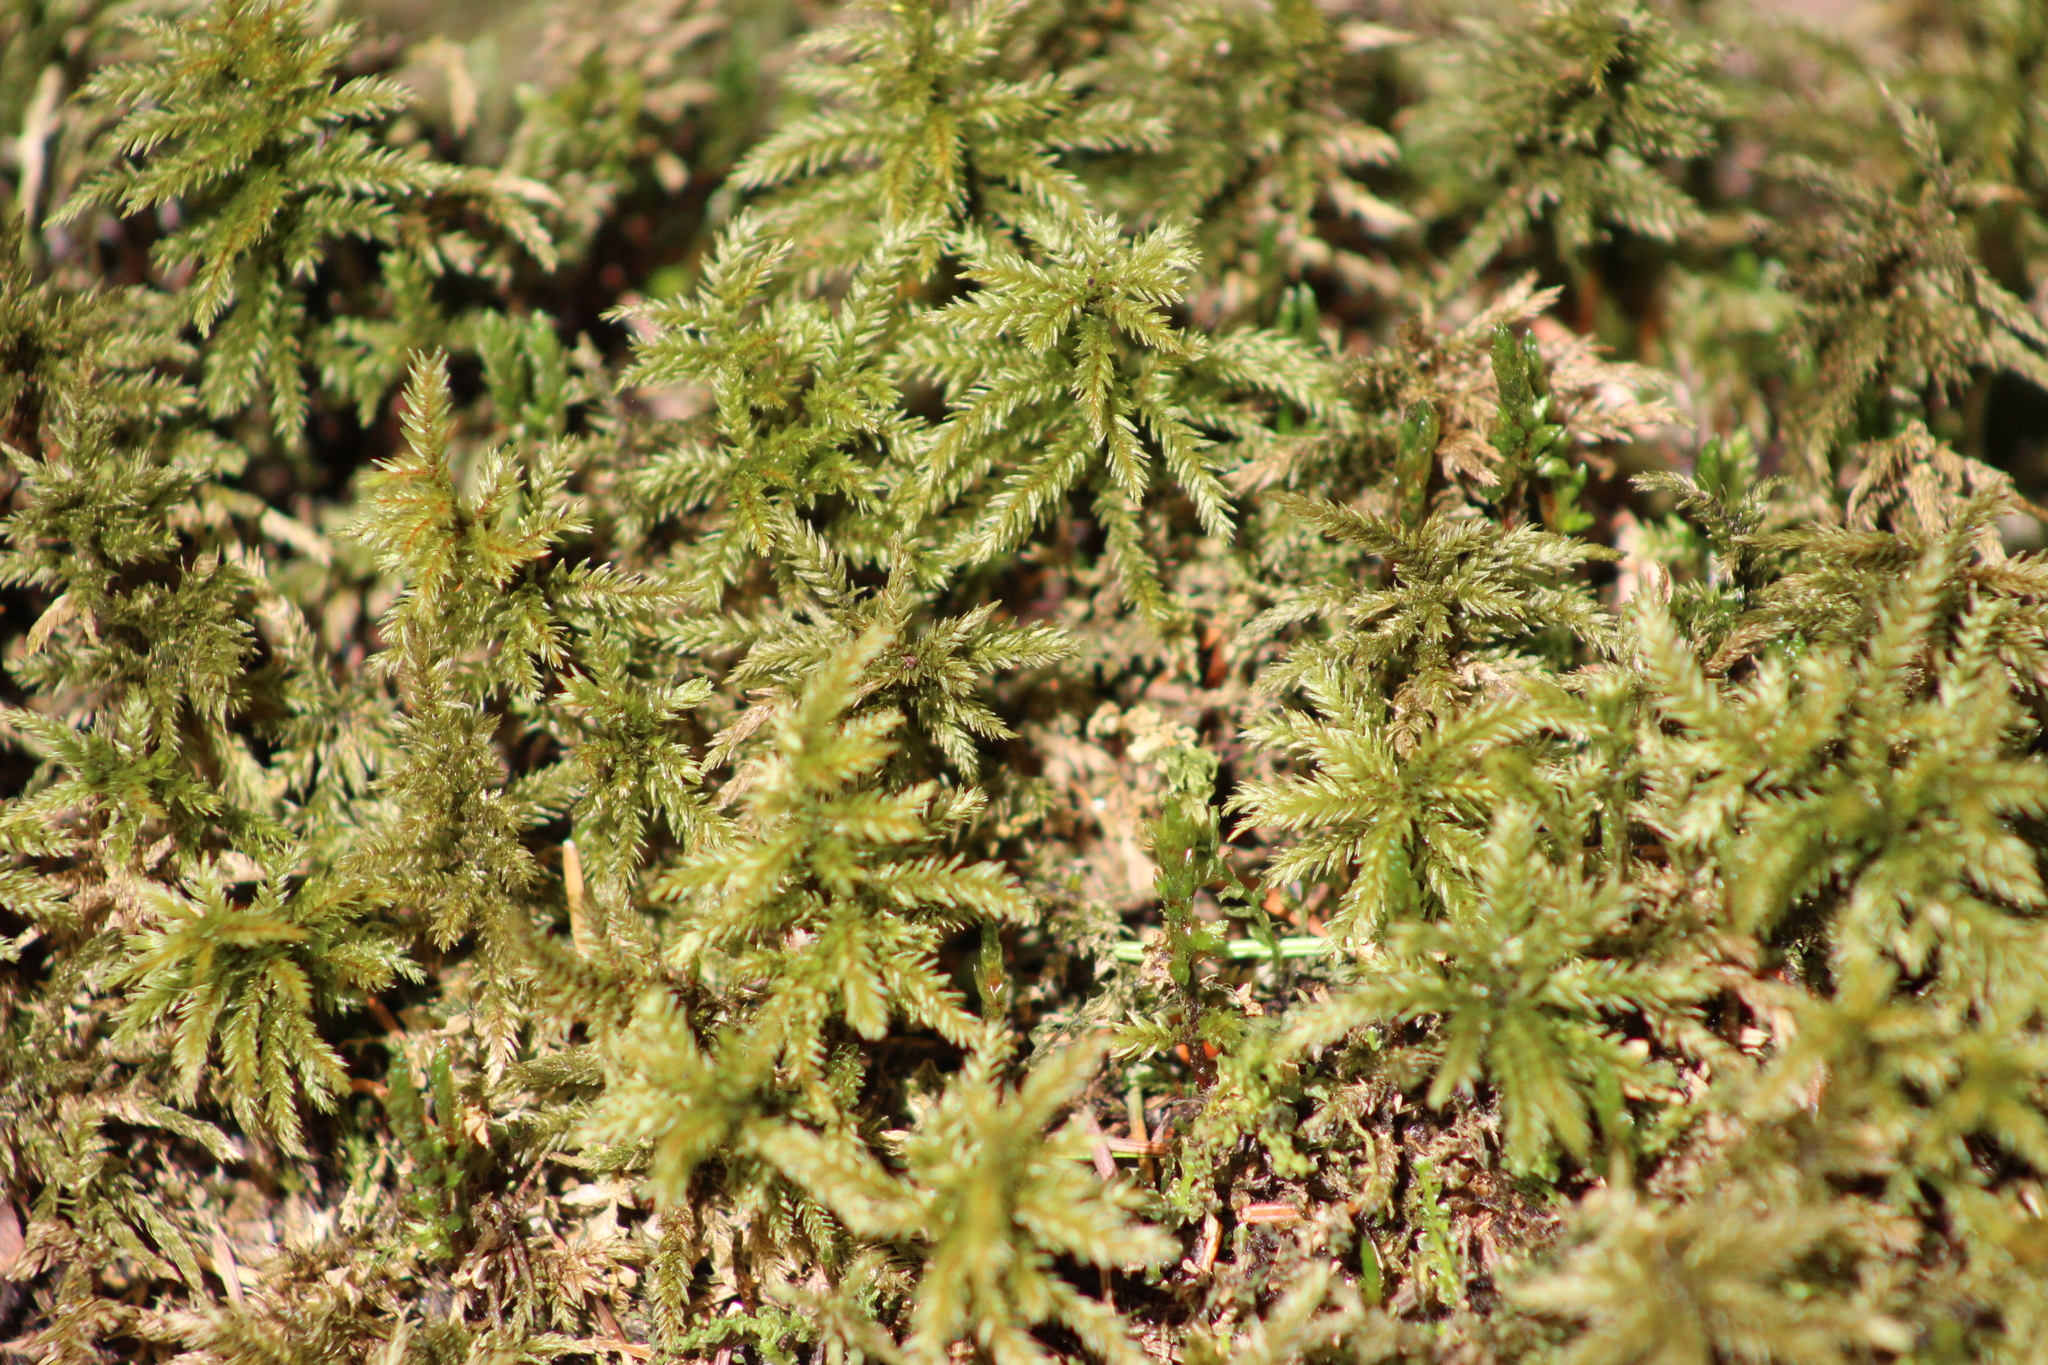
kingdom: Plantae
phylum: Bryophyta
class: Bryopsida
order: Hypnales
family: Climaciaceae
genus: Climacium
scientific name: Climacium dendroides
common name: Northern tree moss
